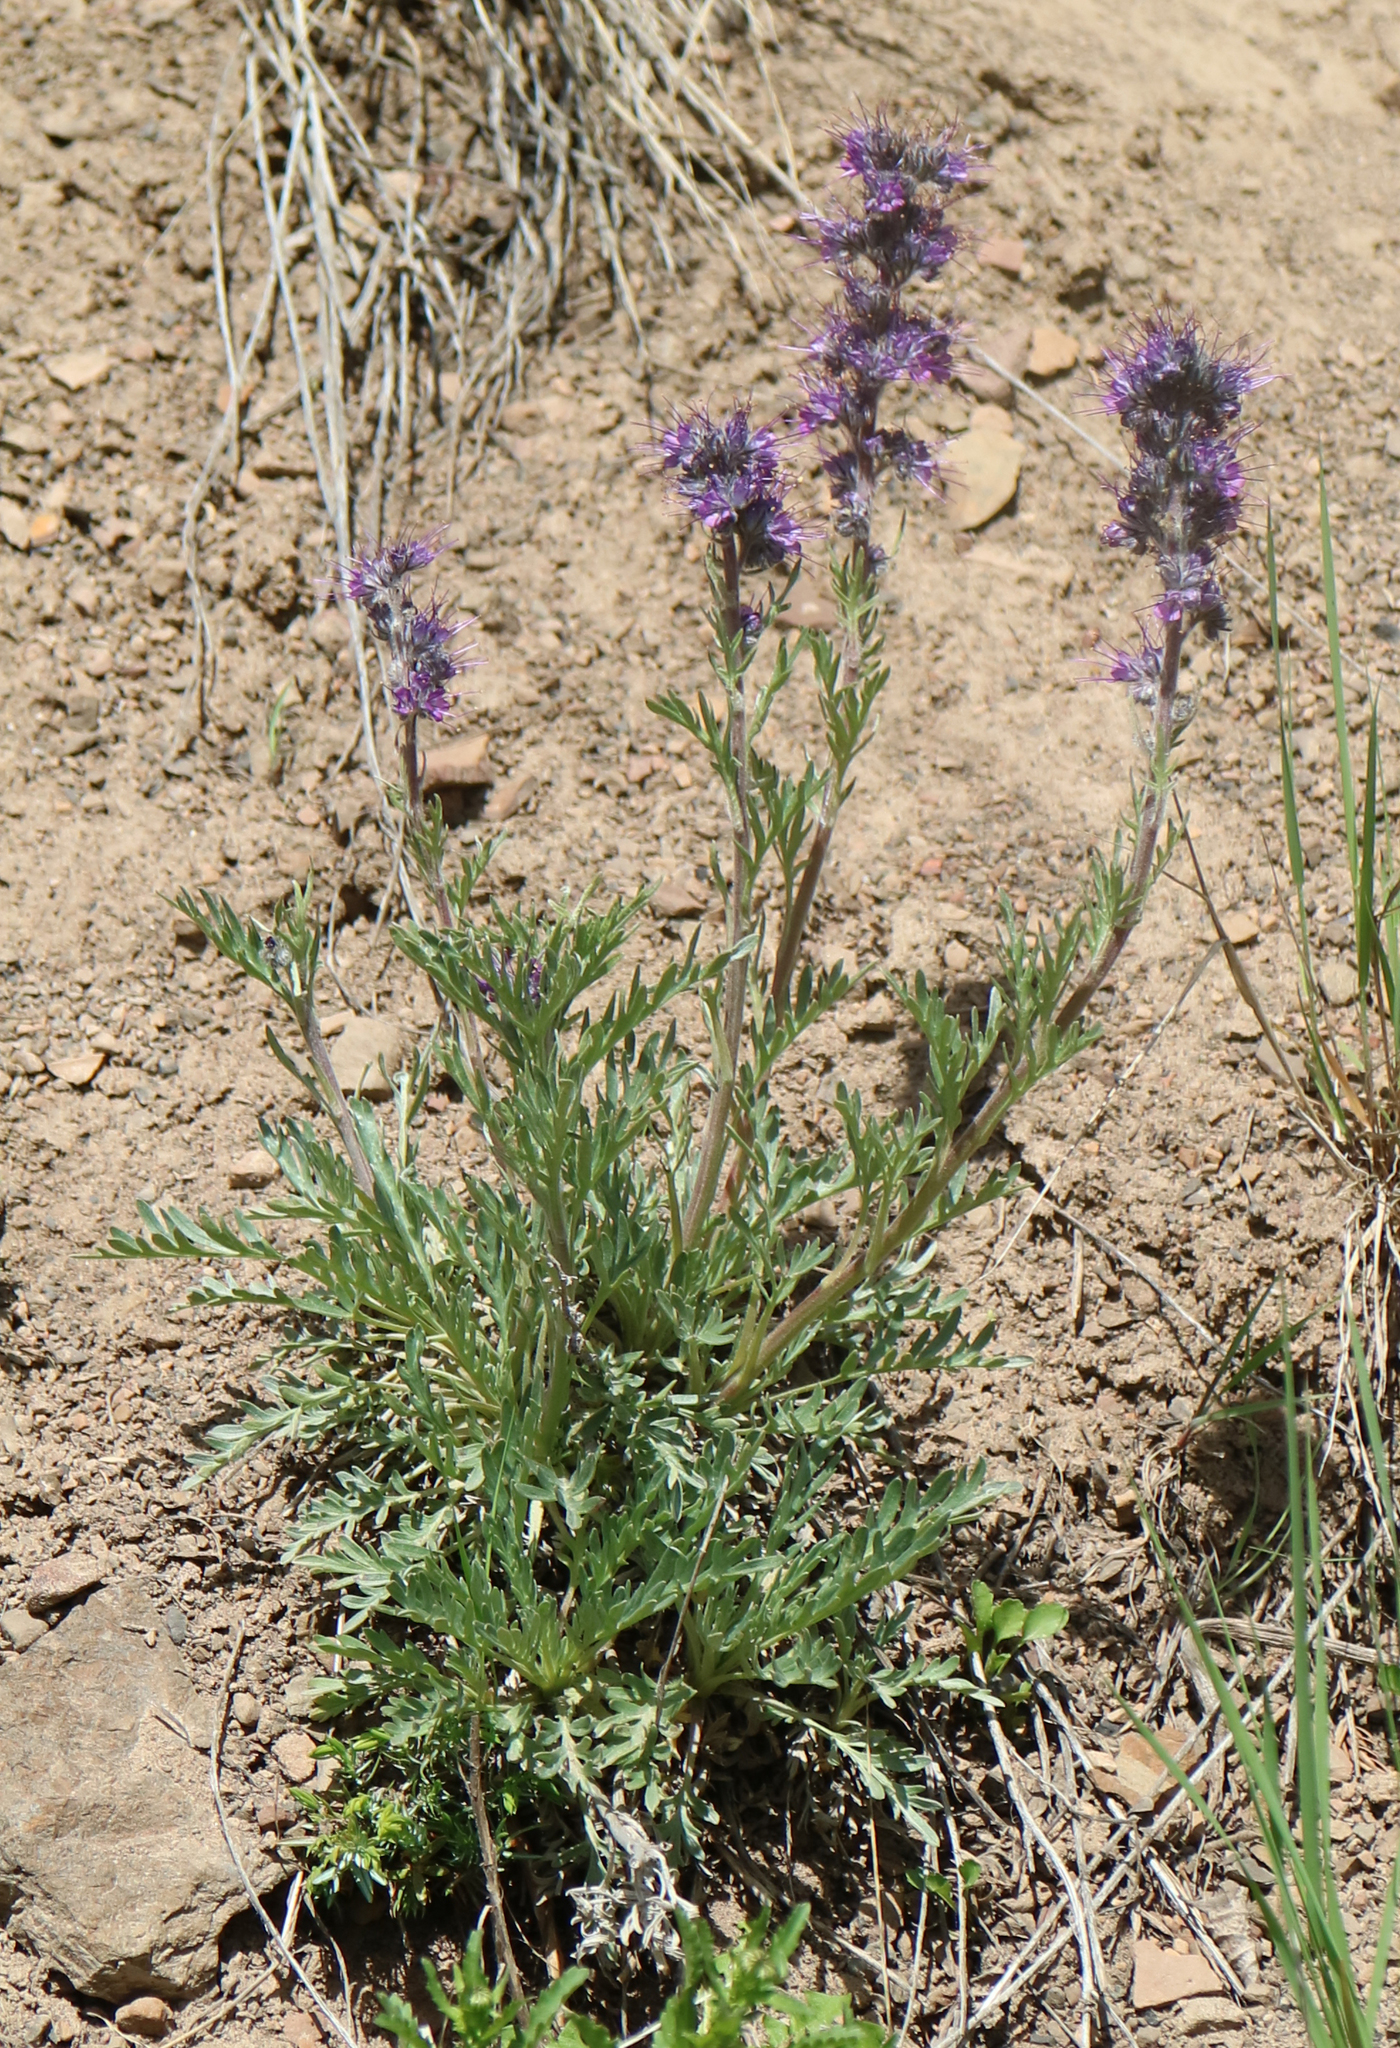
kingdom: Plantae
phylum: Tracheophyta
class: Magnoliopsida
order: Boraginales
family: Hydrophyllaceae
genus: Phacelia
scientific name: Phacelia sericea
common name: Silky phacelia
